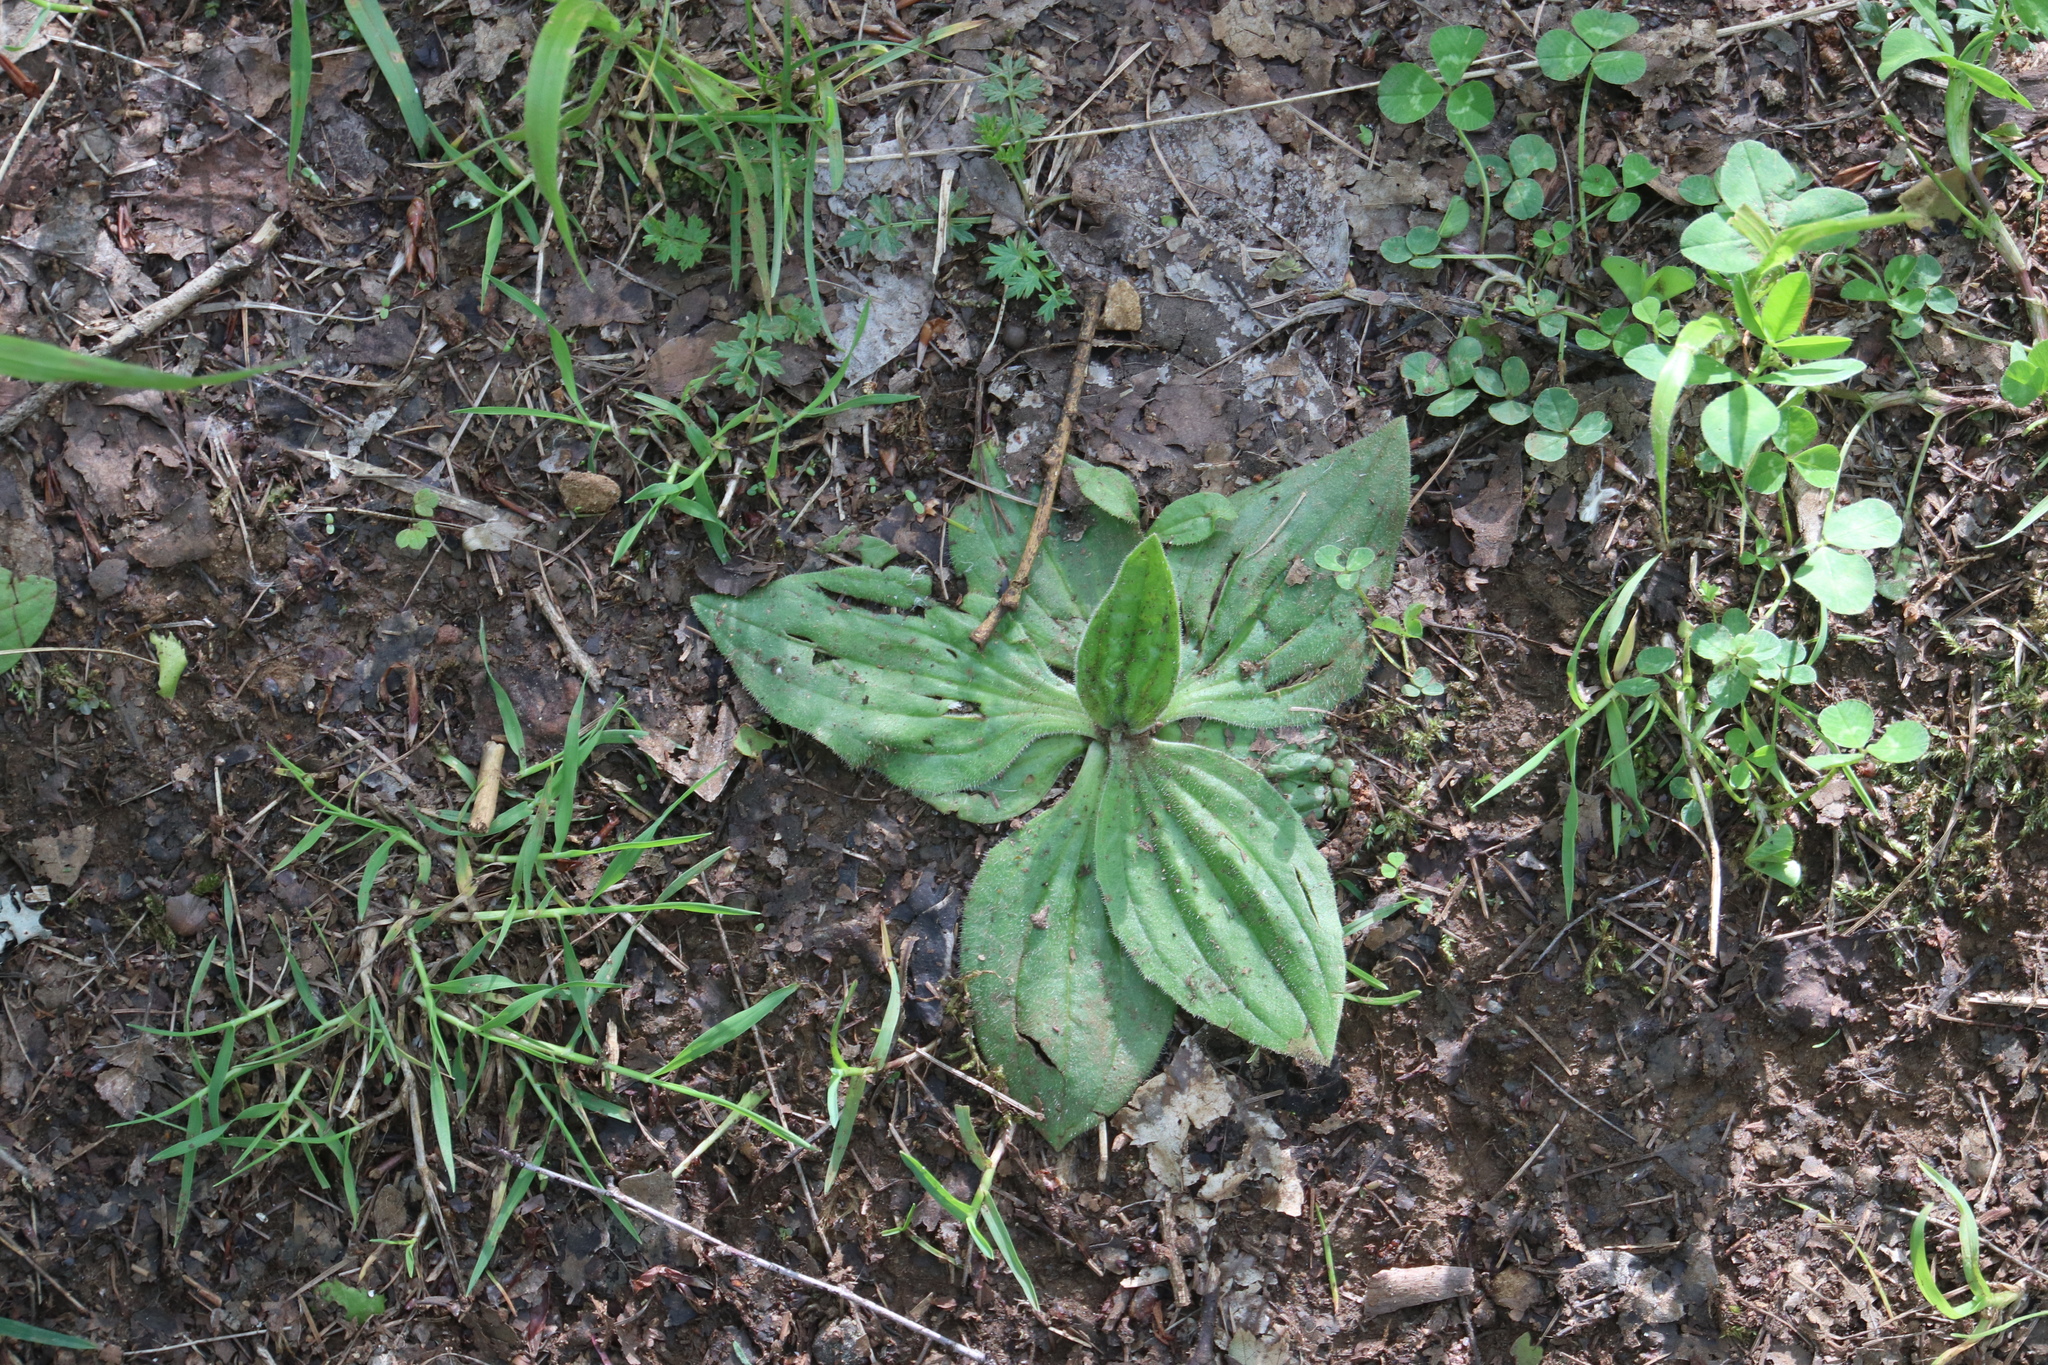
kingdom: Plantae
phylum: Tracheophyta
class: Magnoliopsida
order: Lamiales
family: Plantaginaceae
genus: Plantago
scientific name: Plantago media
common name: Hoary plantain
